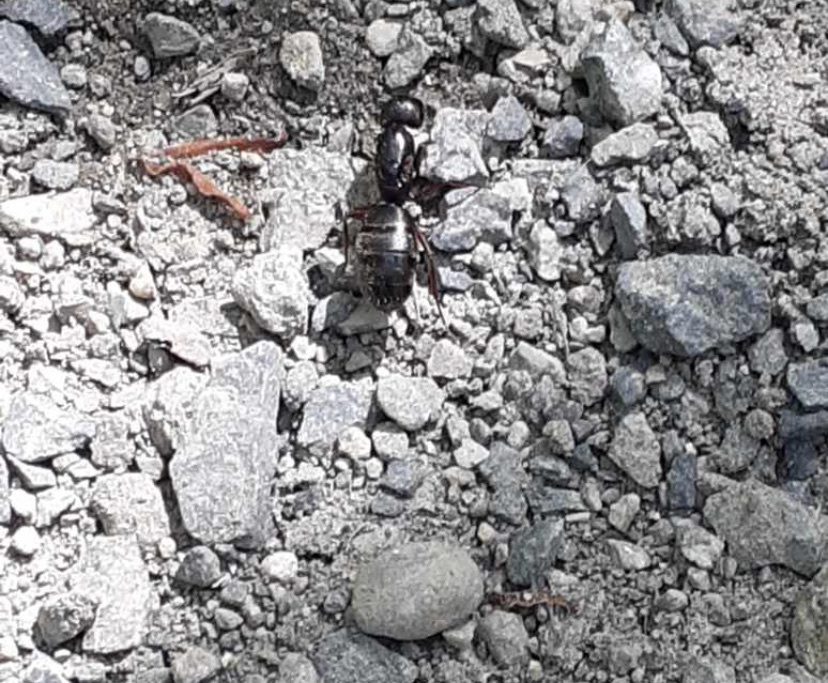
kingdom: Animalia
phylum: Arthropoda
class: Insecta
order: Hymenoptera
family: Formicidae
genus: Camponotus
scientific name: Camponotus modoc
